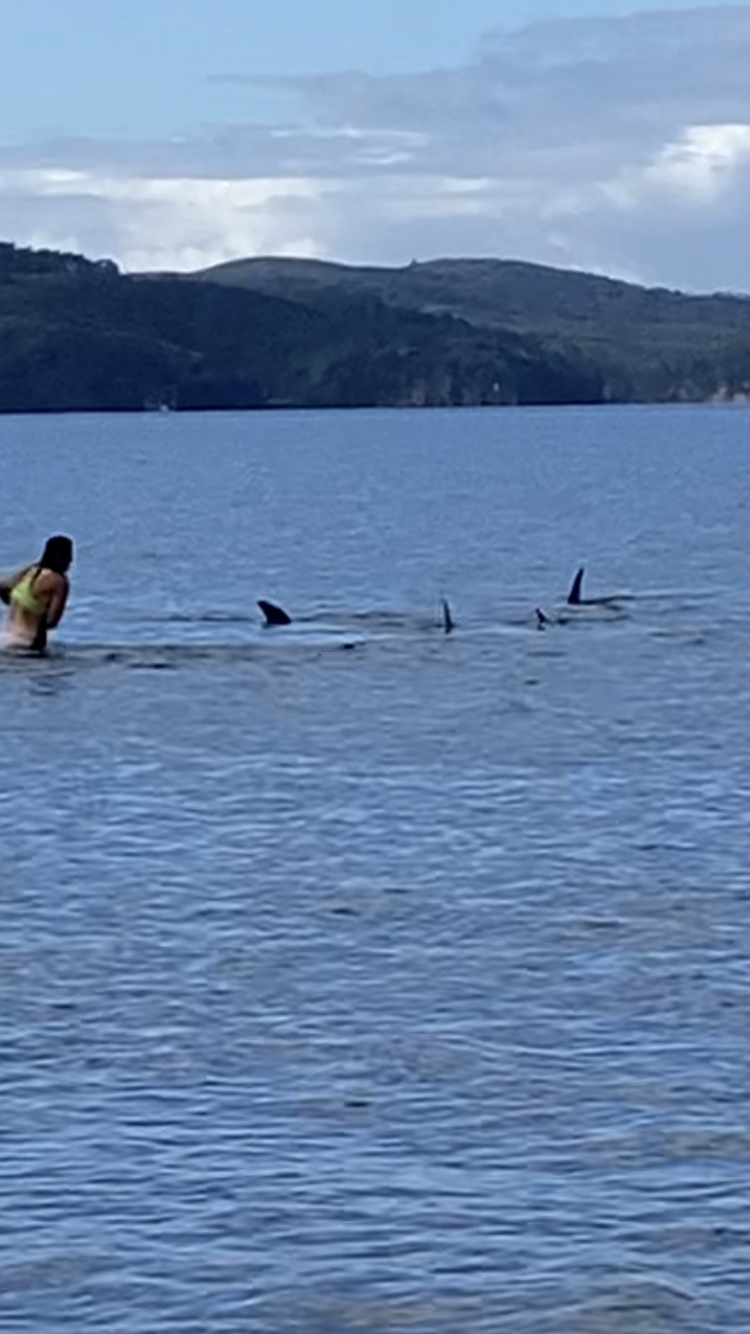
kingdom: Animalia
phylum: Chordata
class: Mammalia
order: Cetacea
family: Delphinidae
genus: Tursiops
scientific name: Tursiops truncatus
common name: Bottlenose dolphin
